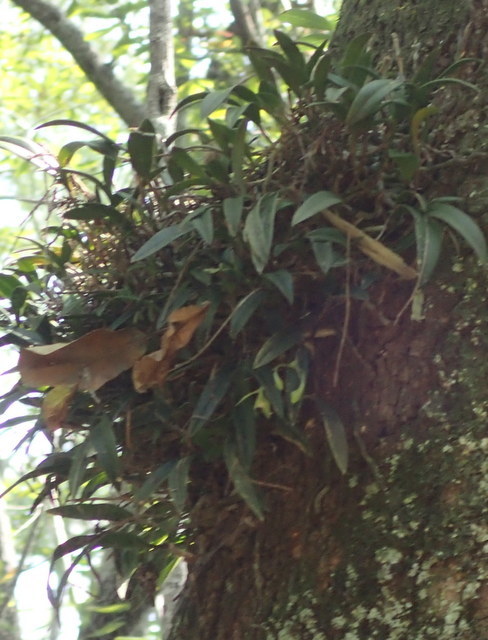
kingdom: Plantae
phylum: Tracheophyta
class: Liliopsida
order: Asparagales
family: Orchidaceae
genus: Epidendrum
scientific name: Epidendrum conopseum
